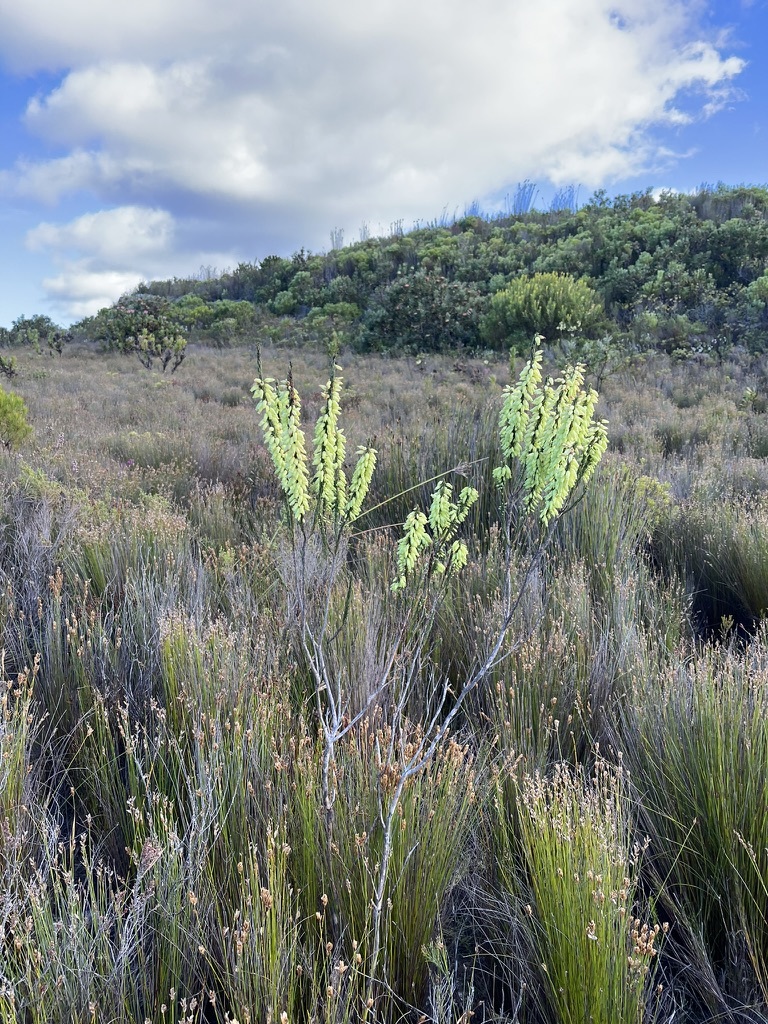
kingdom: Plantae
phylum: Tracheophyta
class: Magnoliopsida
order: Ericales
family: Ericaceae
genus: Erica
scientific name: Erica filipendula
